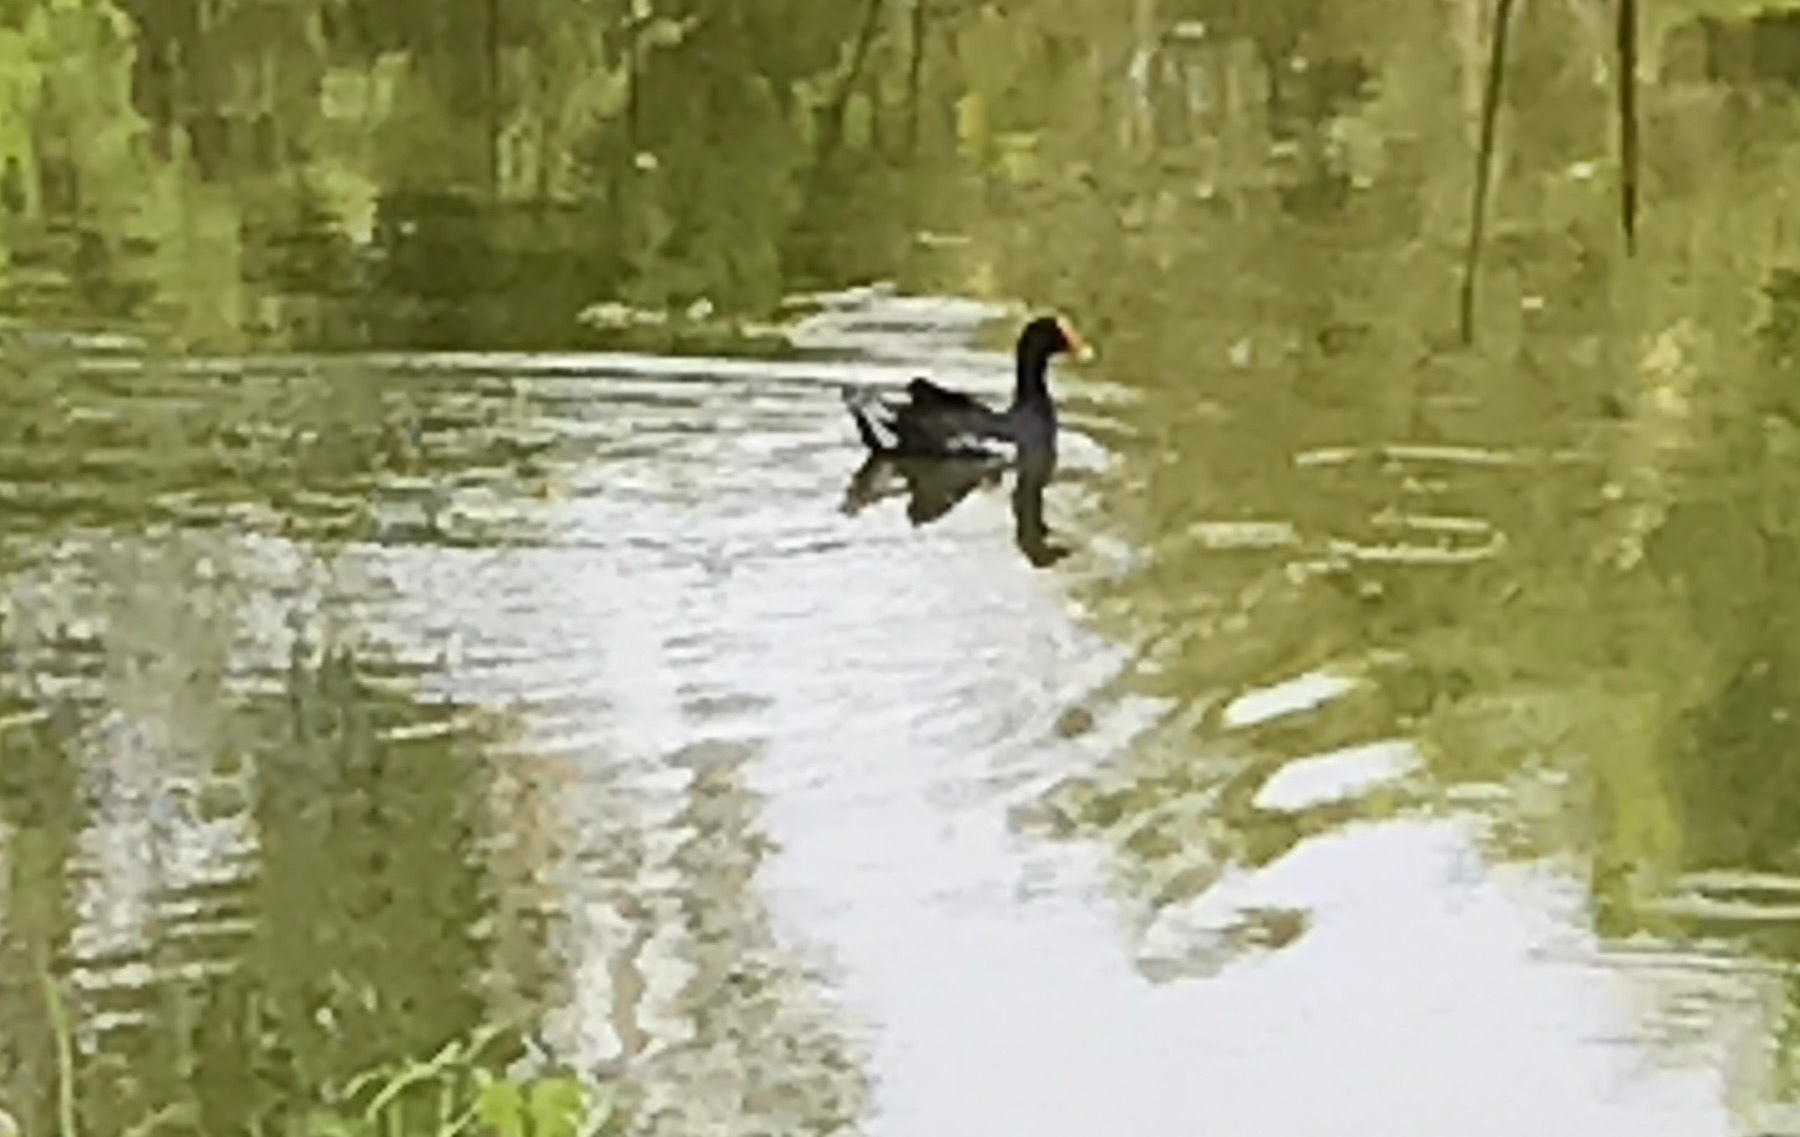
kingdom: Animalia
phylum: Chordata
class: Aves
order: Gruiformes
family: Rallidae
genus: Gallinula
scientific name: Gallinula chloropus
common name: Common moorhen
